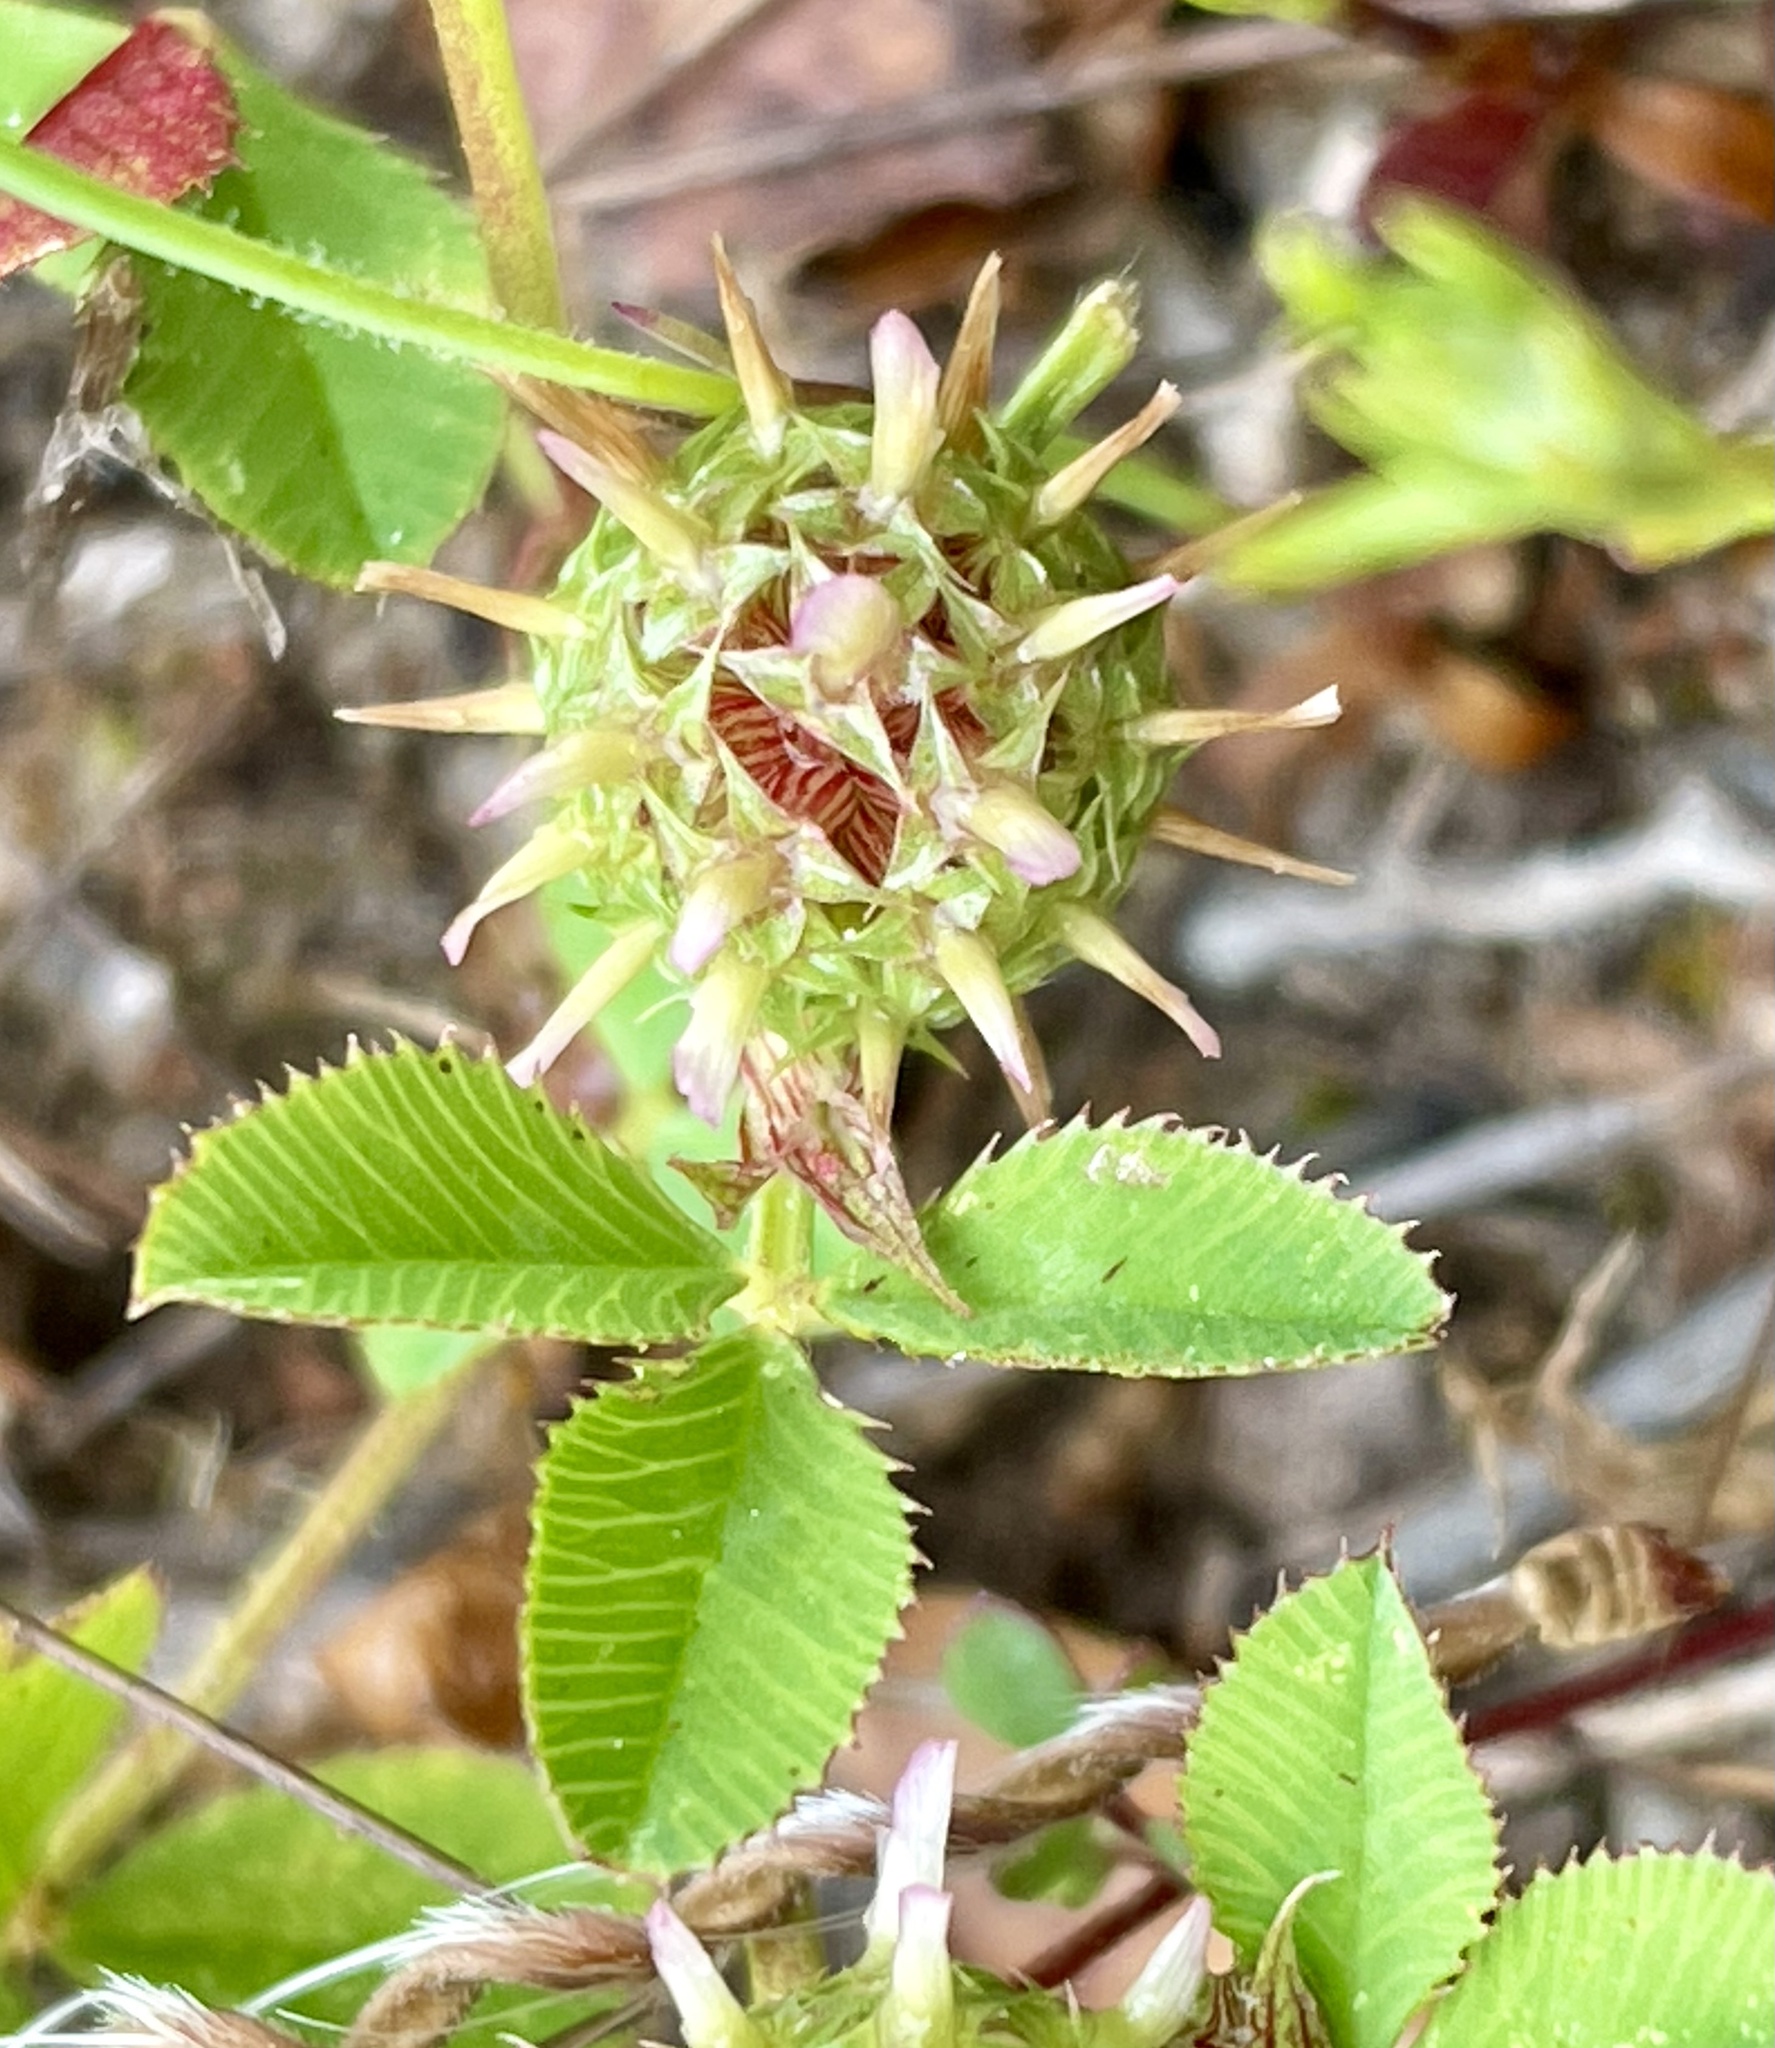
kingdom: Plantae
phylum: Tracheophyta
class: Magnoliopsida
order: Fabales
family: Fabaceae
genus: Trifolium
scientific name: Trifolium glomeratum
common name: Clustered clover
